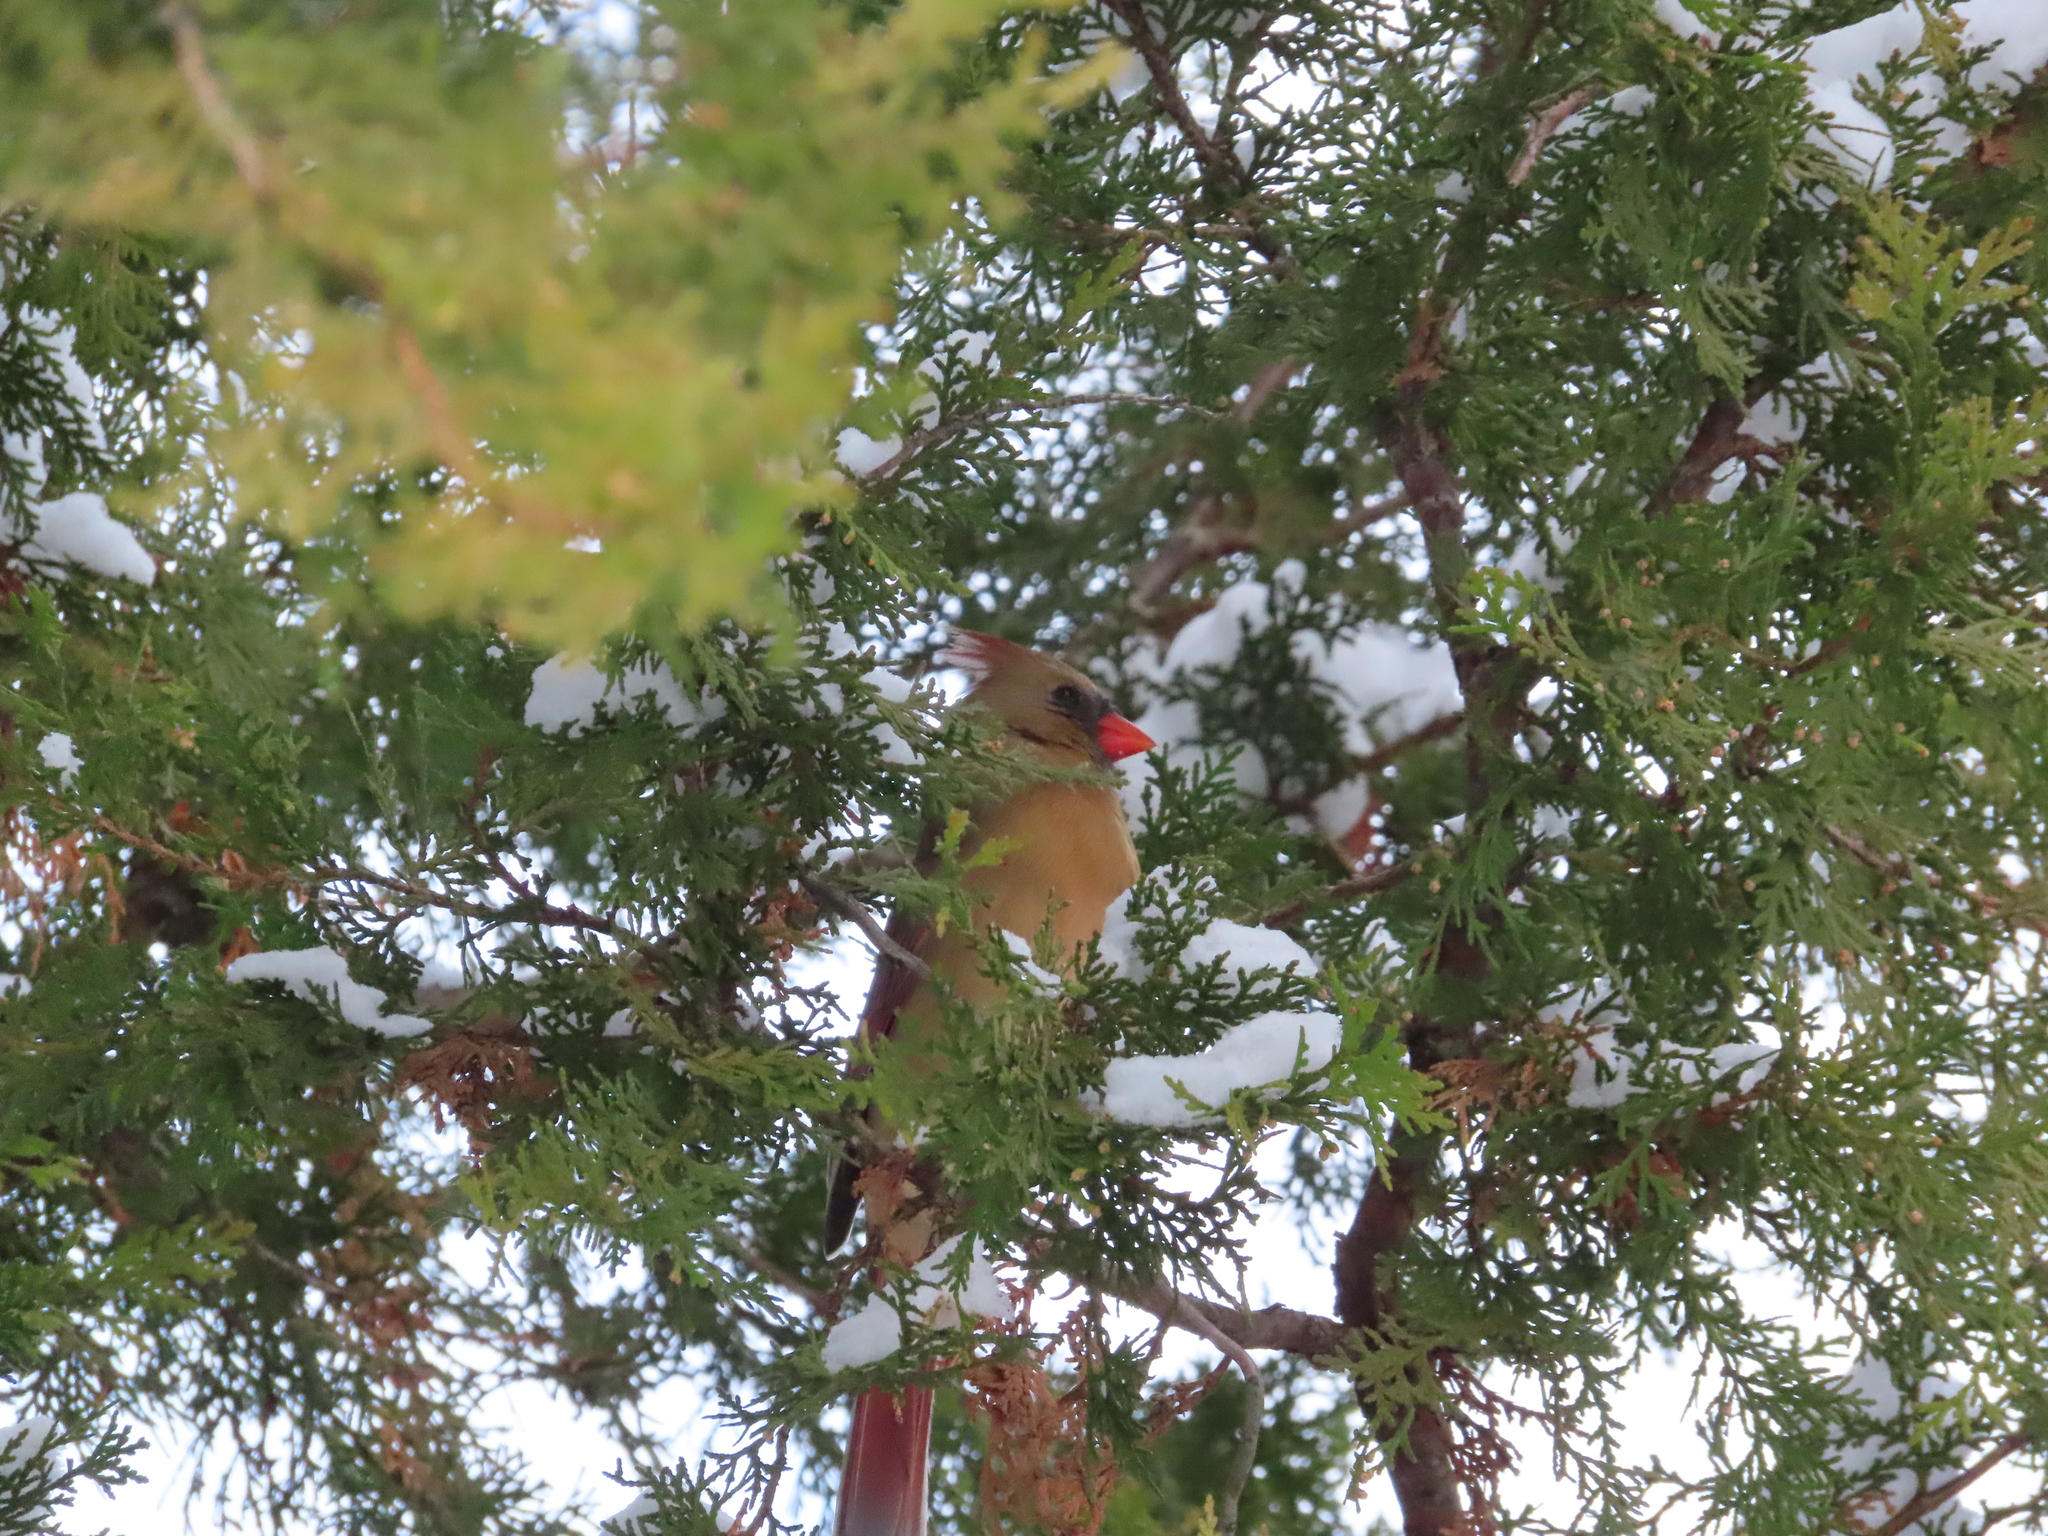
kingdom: Animalia
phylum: Chordata
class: Aves
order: Passeriformes
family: Cardinalidae
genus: Cardinalis
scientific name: Cardinalis cardinalis
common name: Northern cardinal
